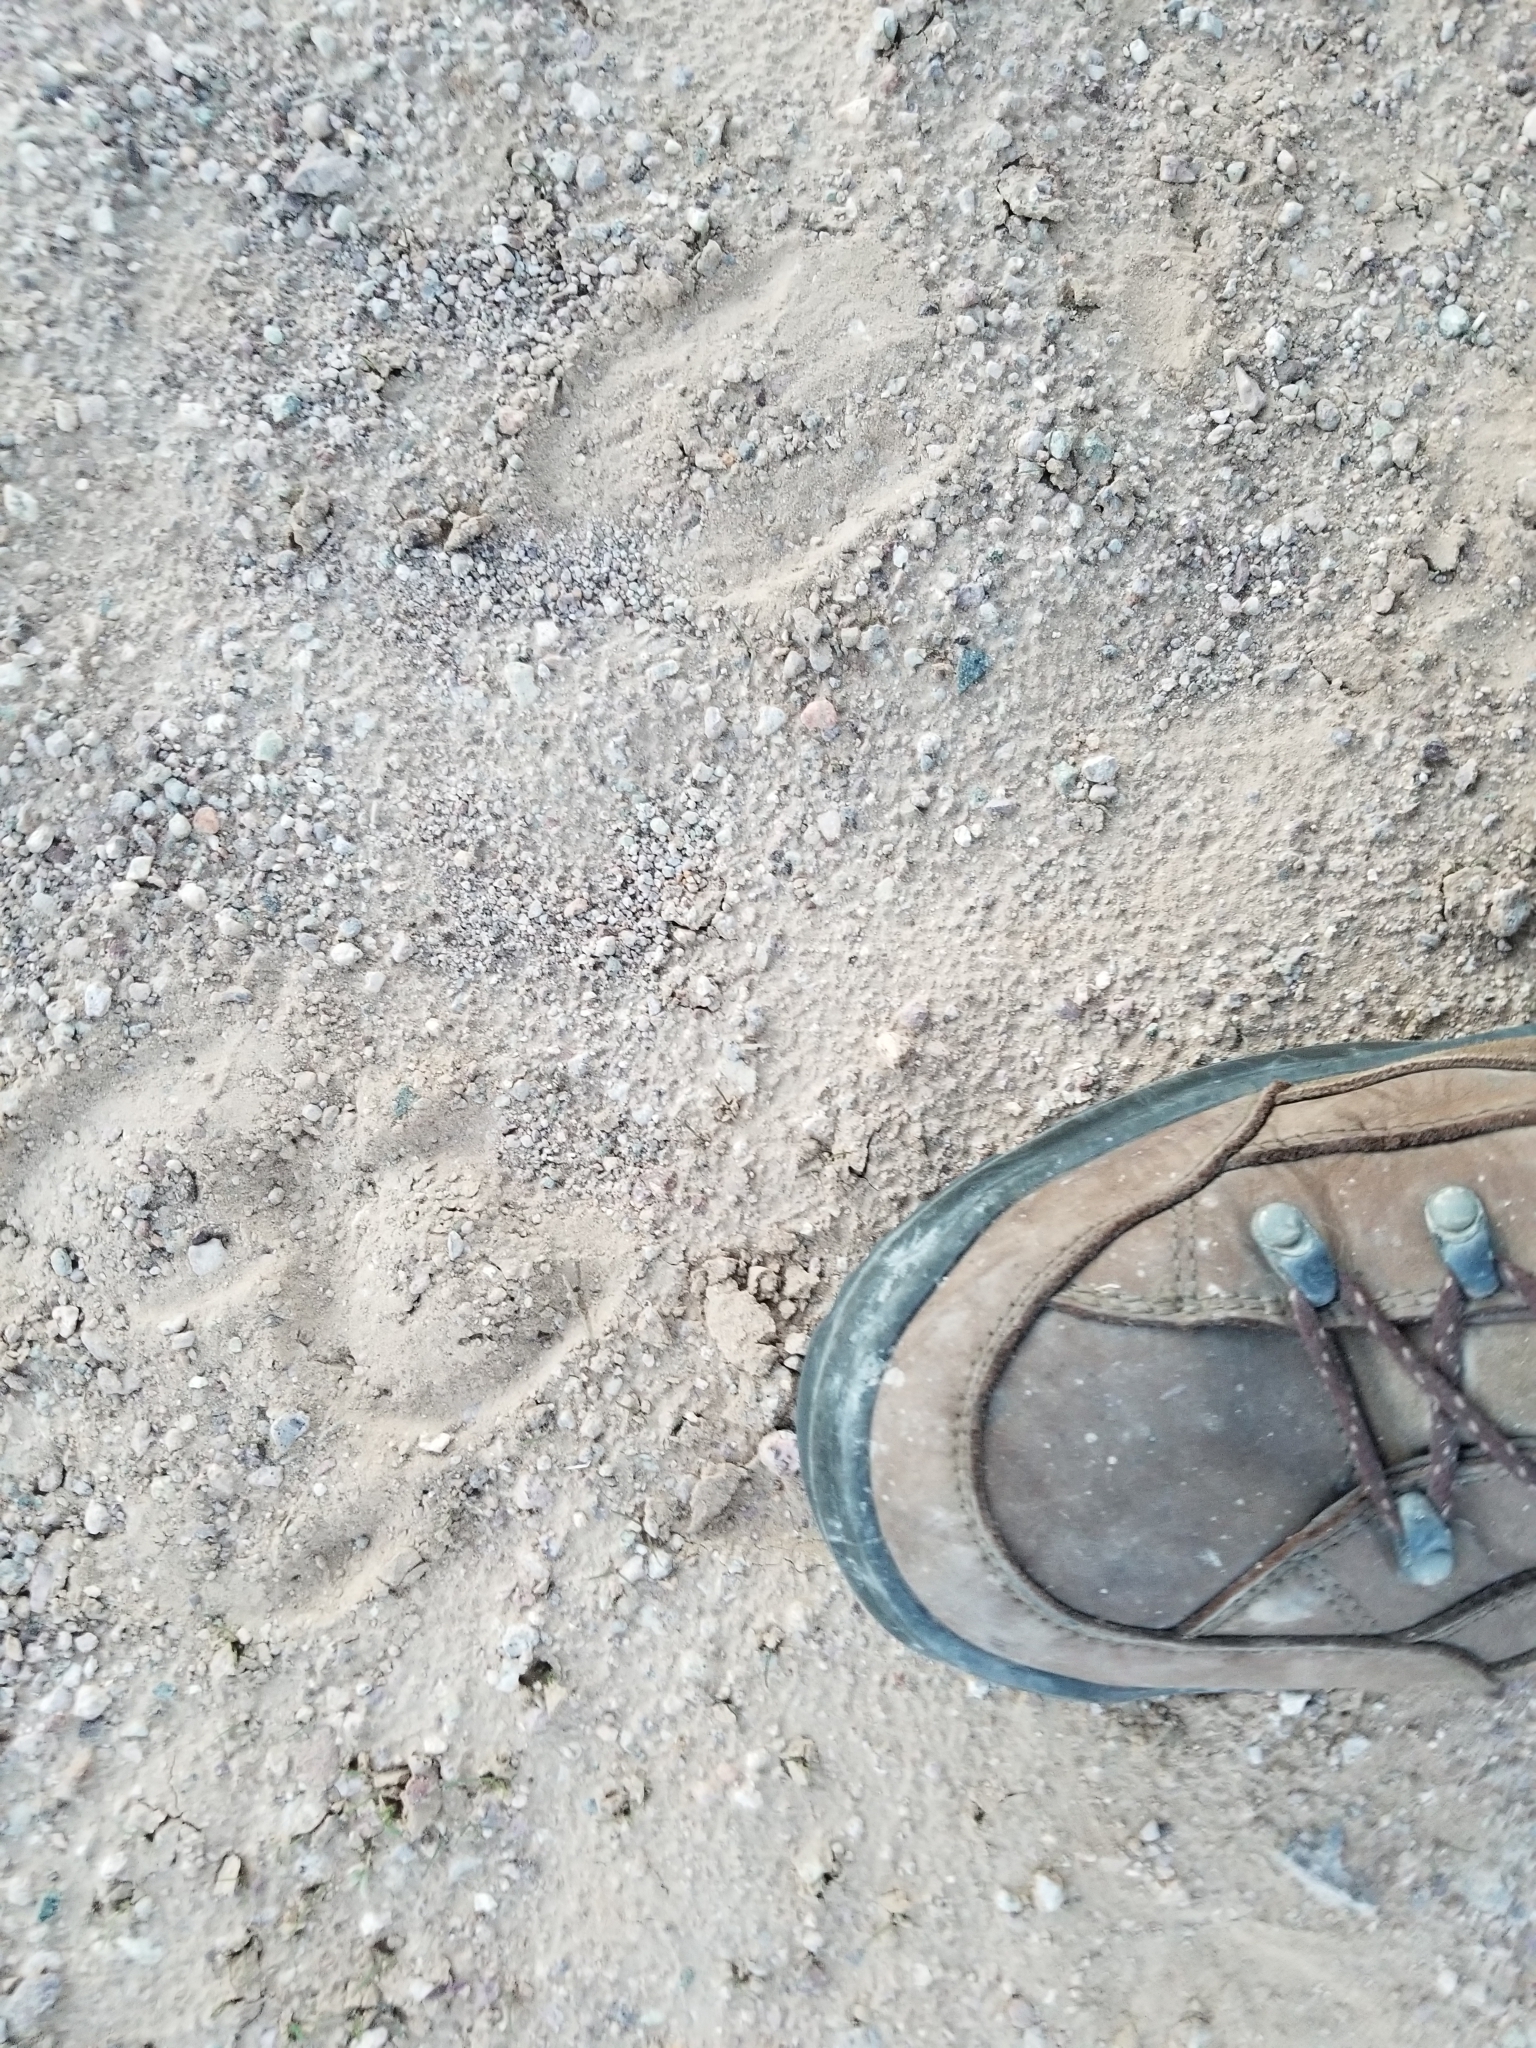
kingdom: Animalia
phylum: Chordata
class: Mammalia
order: Perissodactyla
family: Equidae
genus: Equus
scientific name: Equus asinus
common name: Ass
